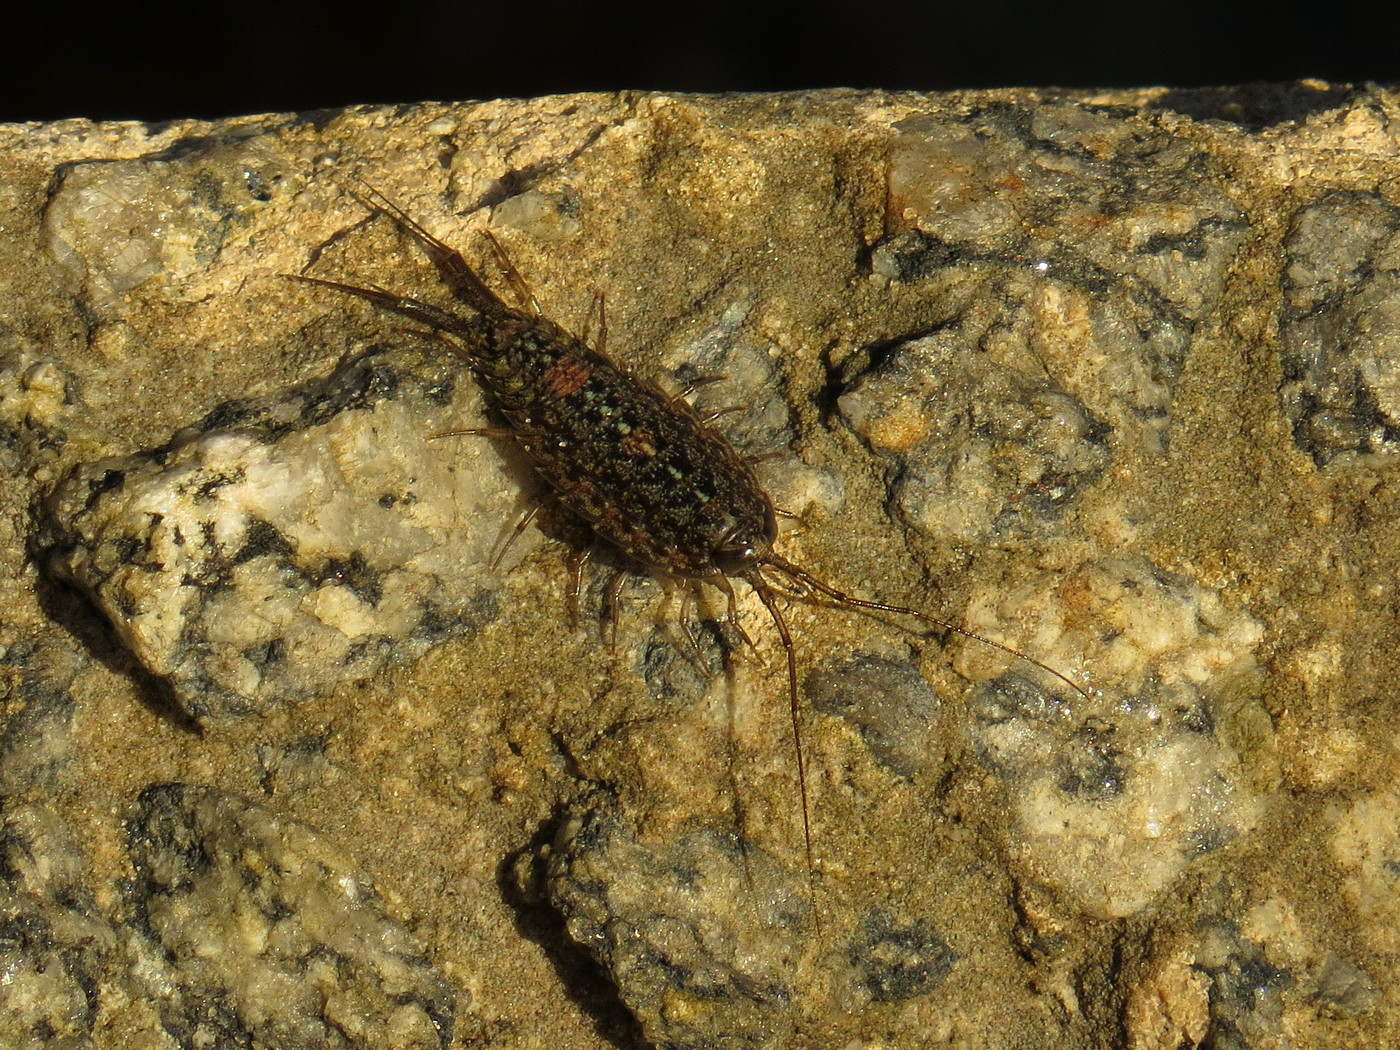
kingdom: Animalia
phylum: Arthropoda
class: Malacostraca
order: Isopoda
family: Ligiidae
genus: Ligia
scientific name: Ligia exotica
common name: Wharf roach
